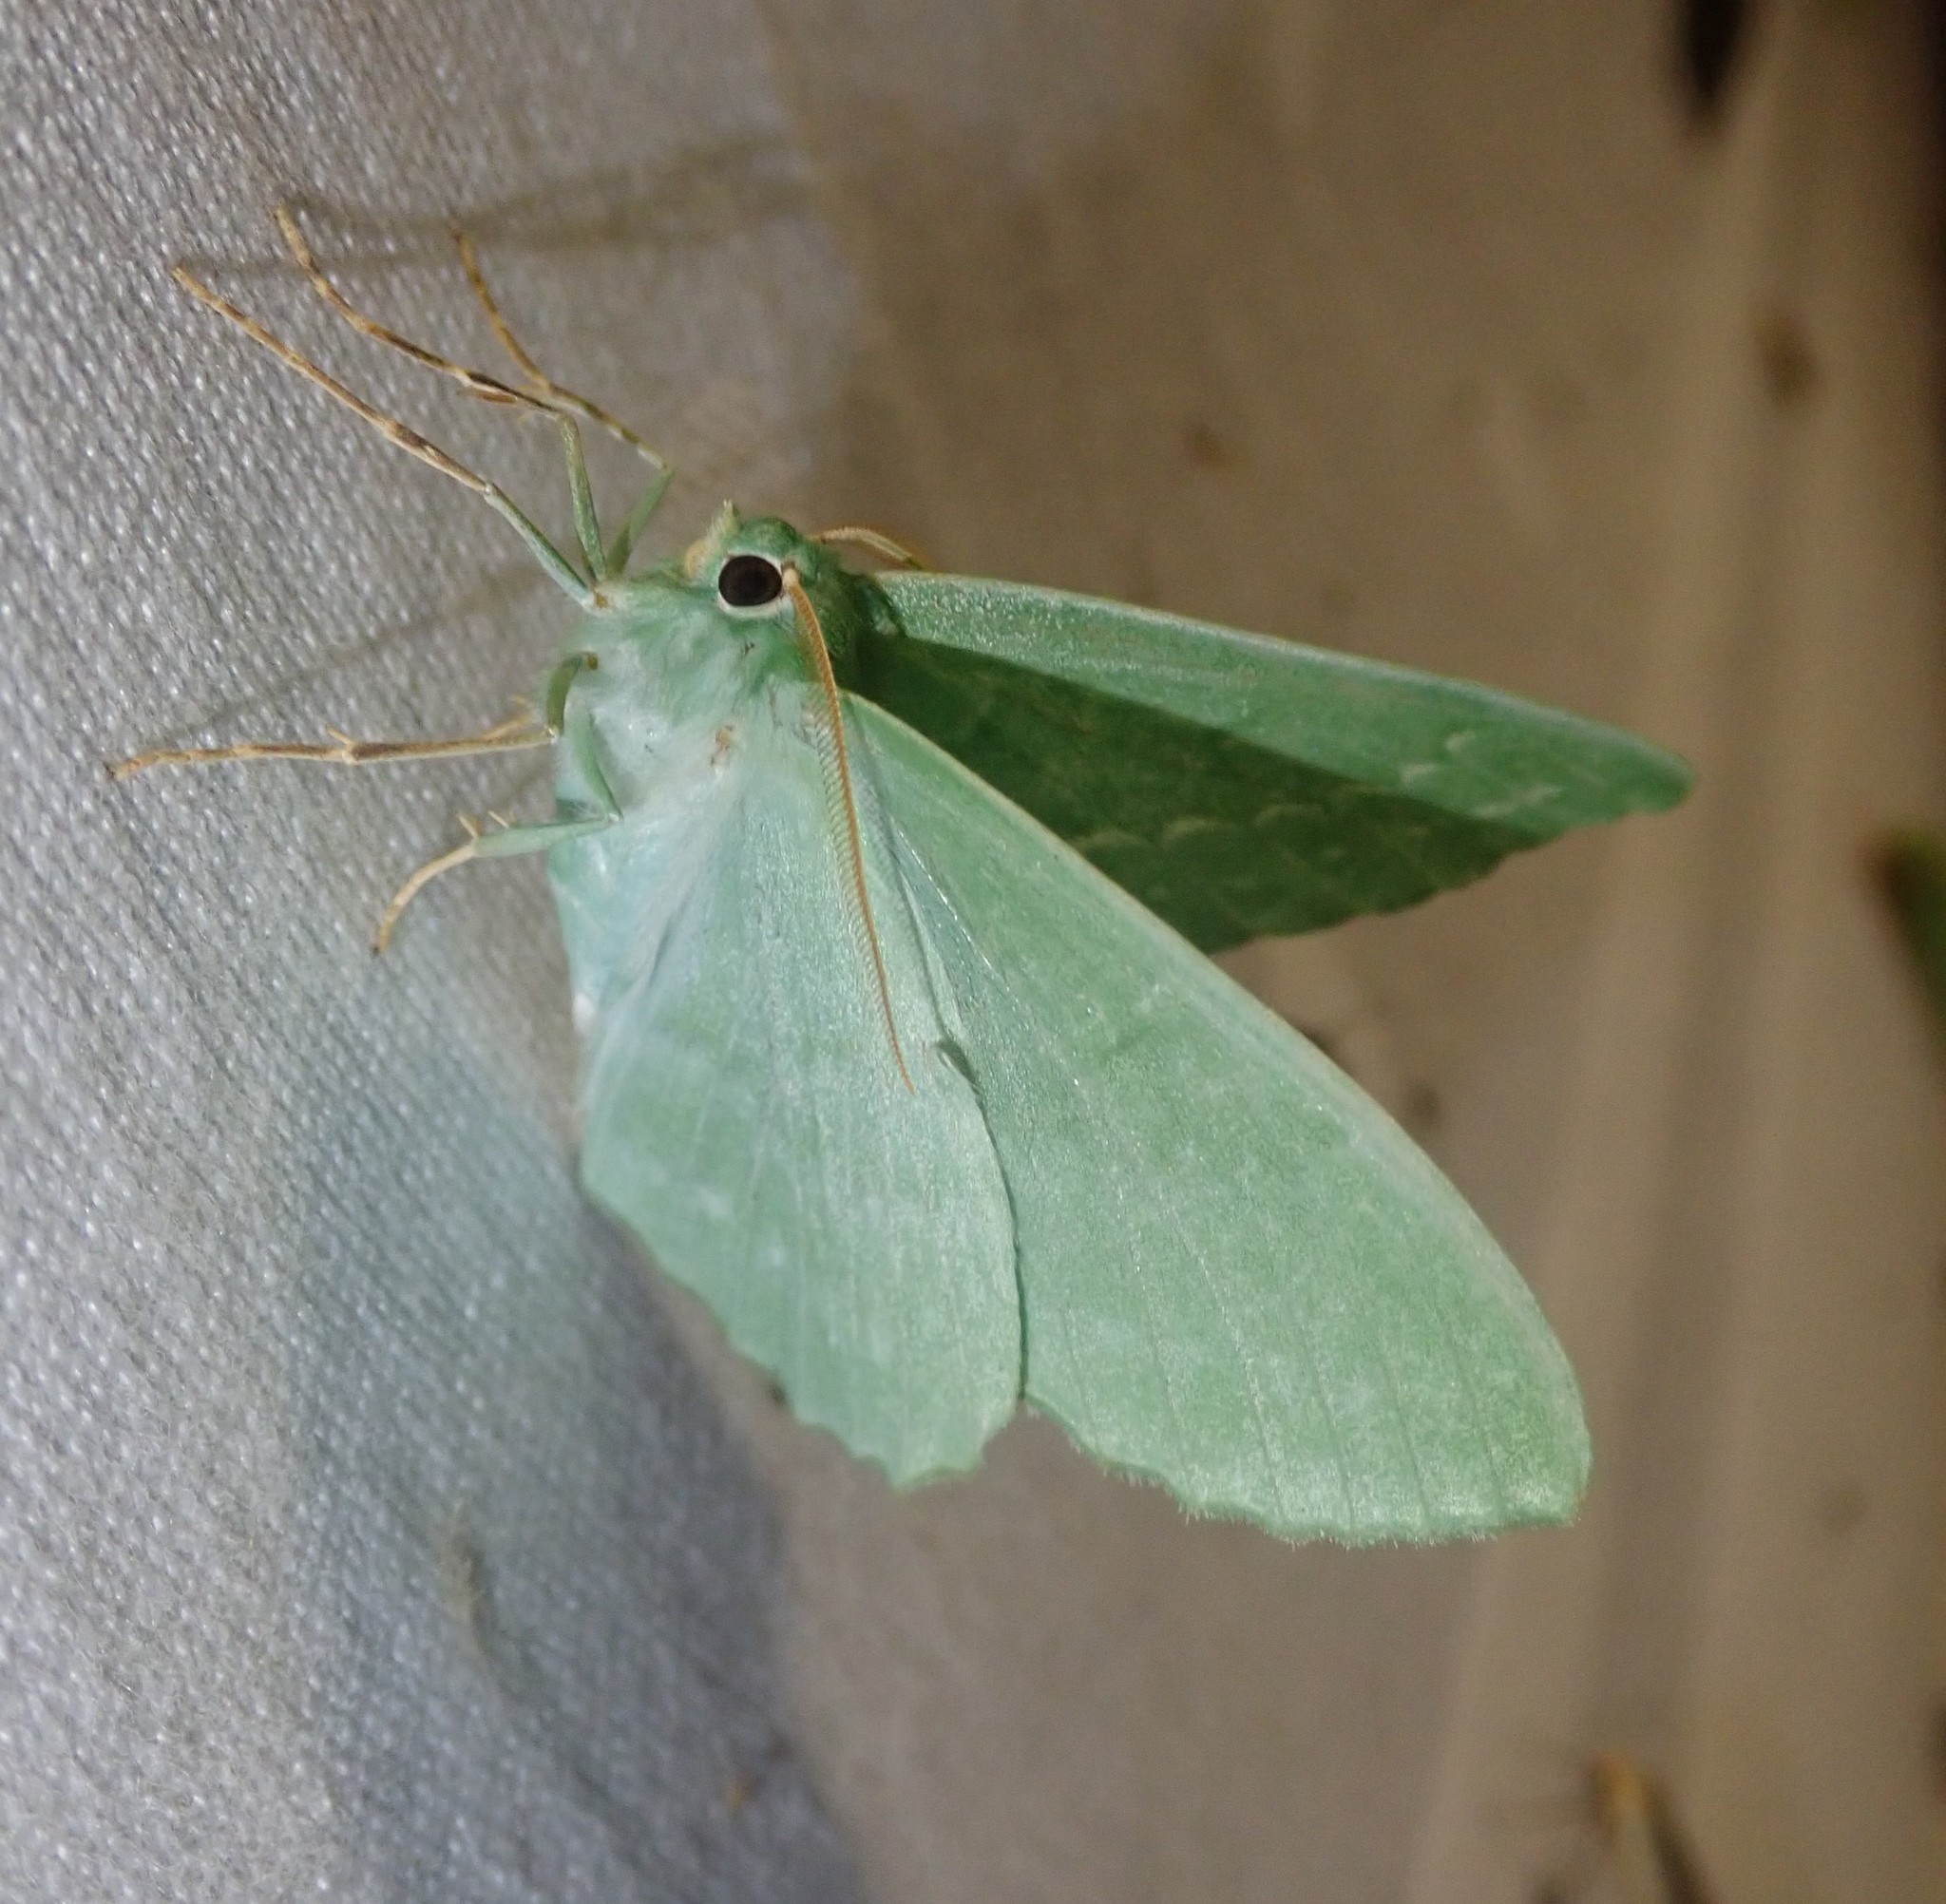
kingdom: Animalia
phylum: Arthropoda
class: Insecta
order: Lepidoptera
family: Geometridae
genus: Geometra
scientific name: Geometra papilionaria
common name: Large emerald
